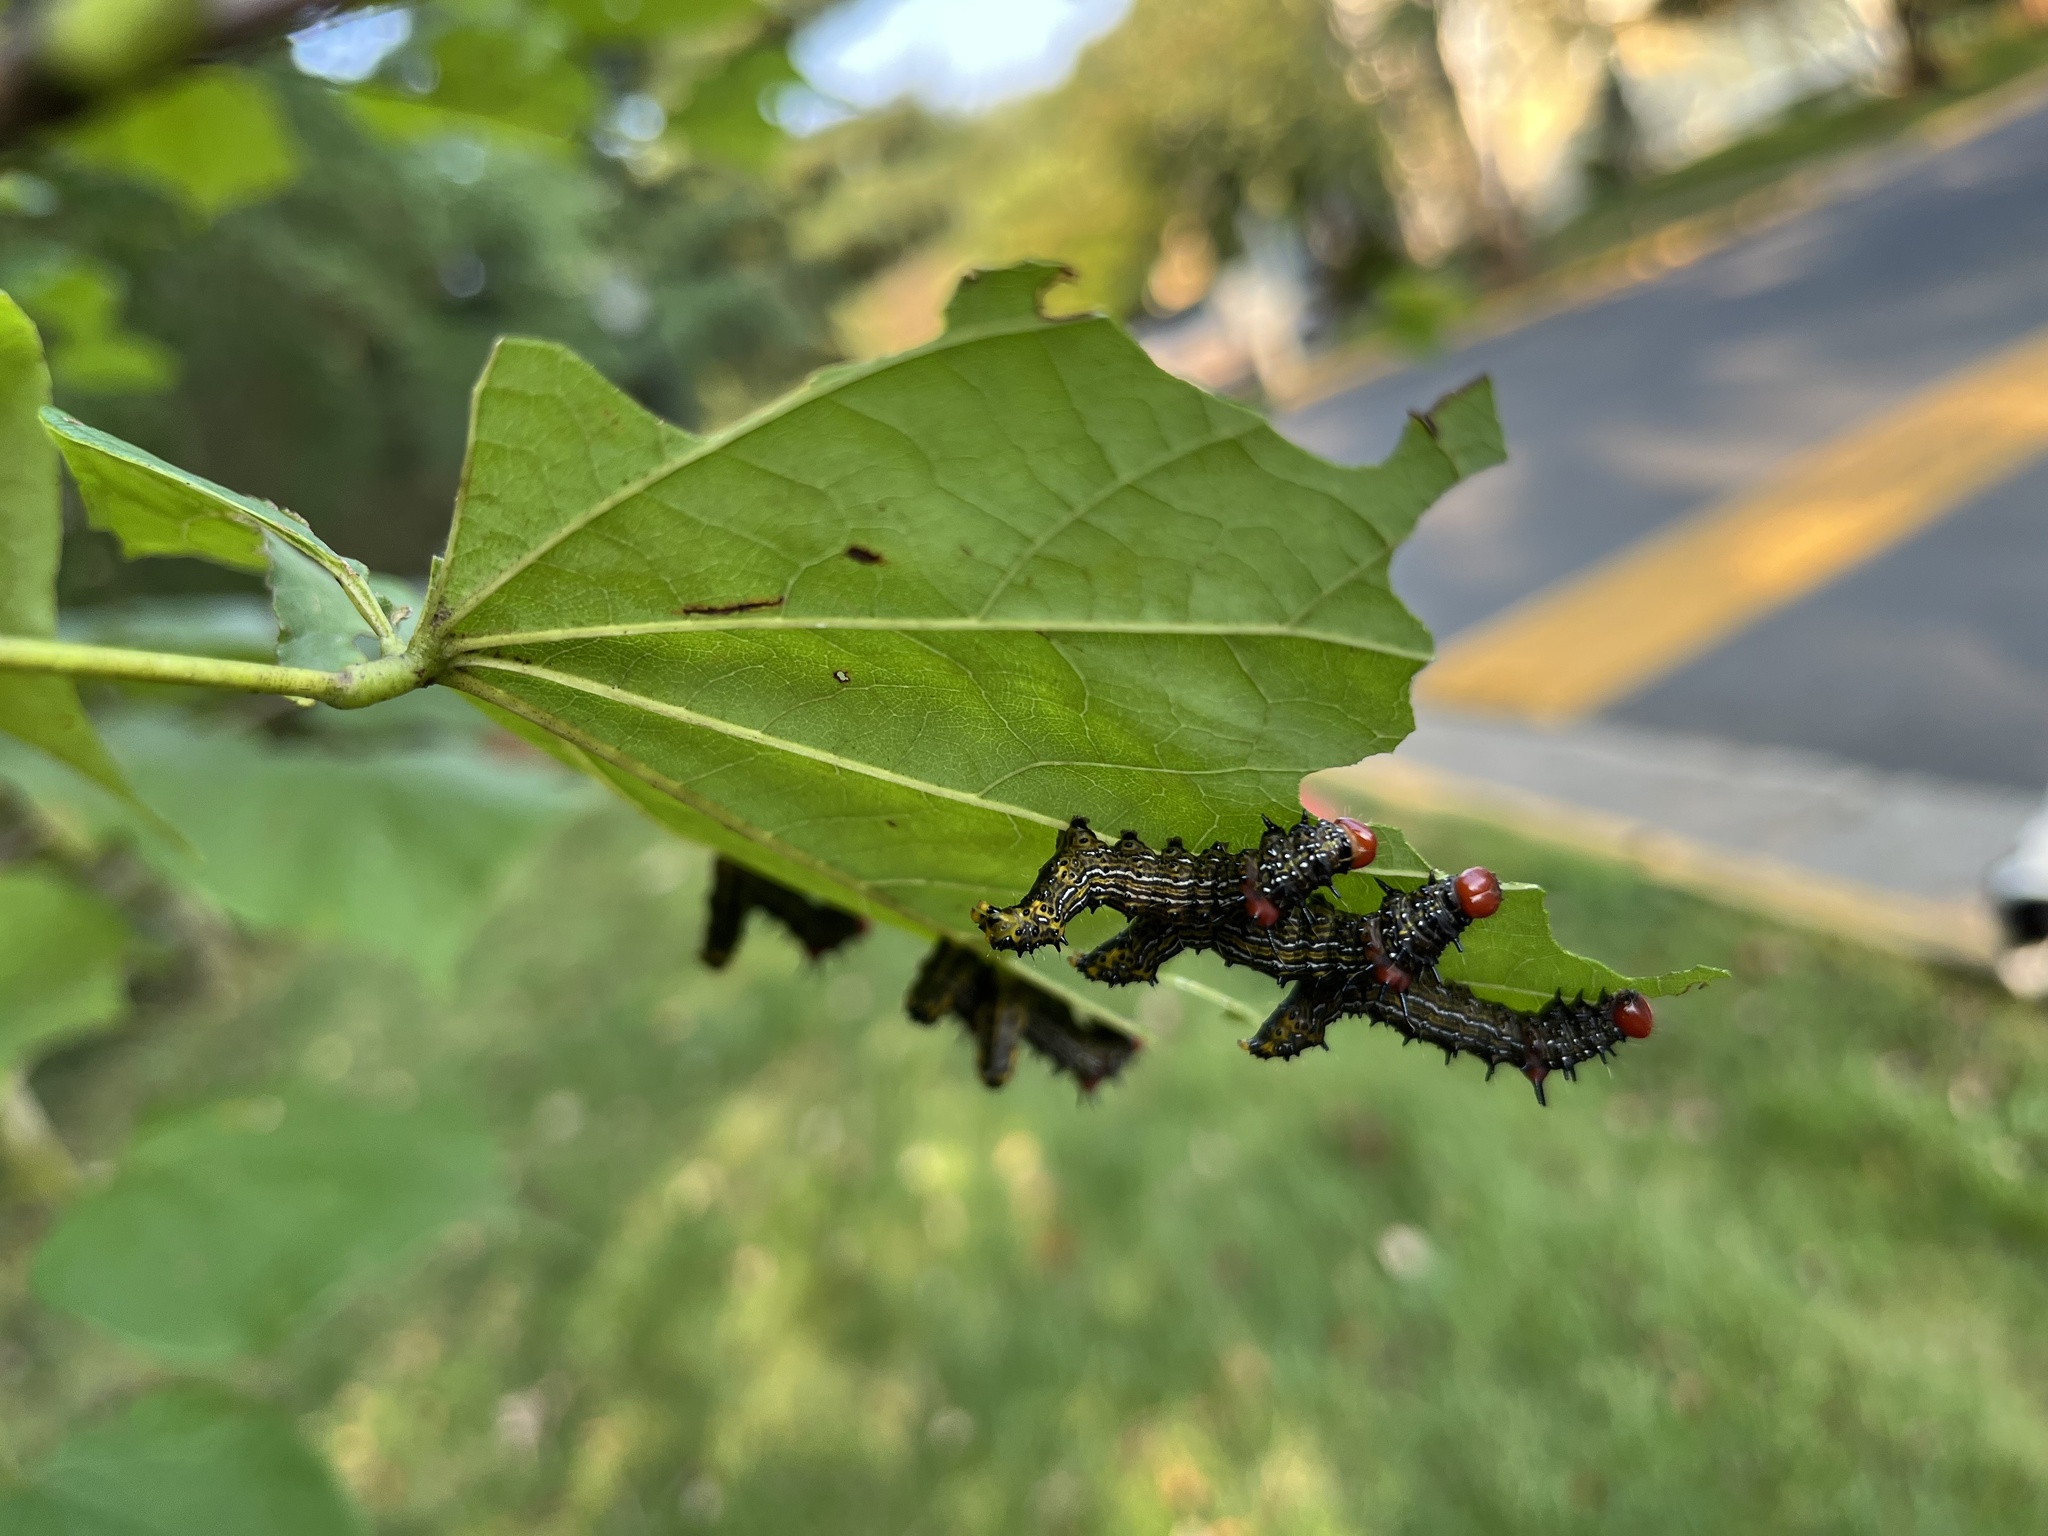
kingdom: Animalia
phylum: Arthropoda
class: Insecta
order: Lepidoptera
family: Notodontidae
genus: Schizura
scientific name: Schizura
